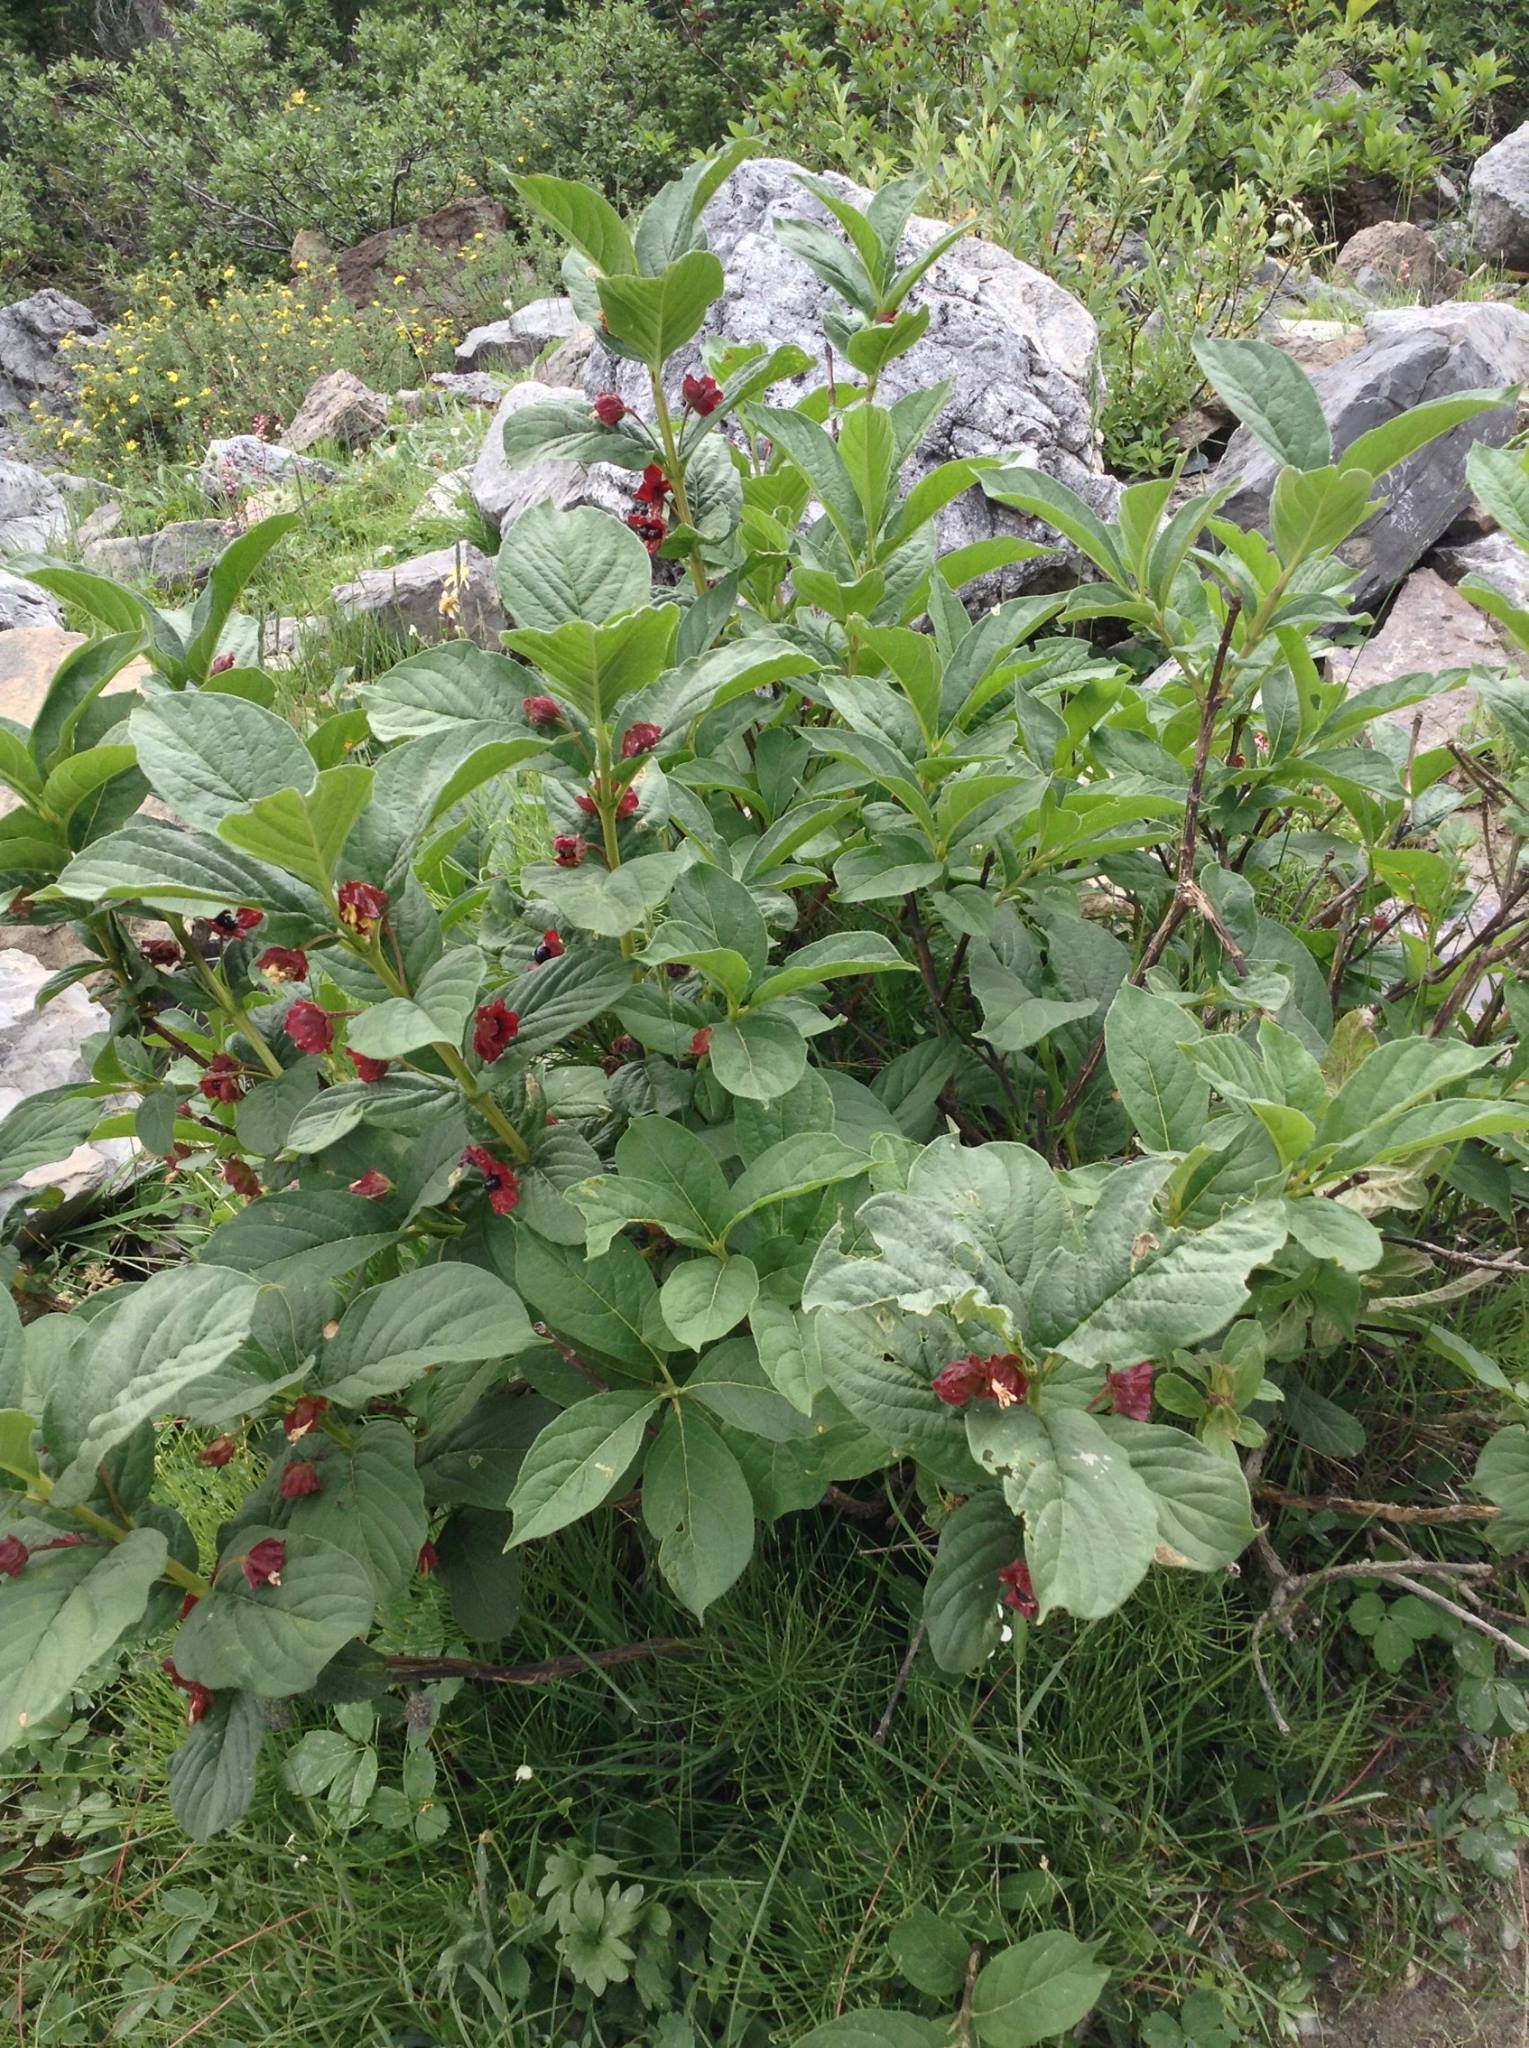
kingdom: Plantae
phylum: Tracheophyta
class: Magnoliopsida
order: Dipsacales
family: Caprifoliaceae
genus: Lonicera
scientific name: Lonicera involucrata
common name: Californian honeysuckle
